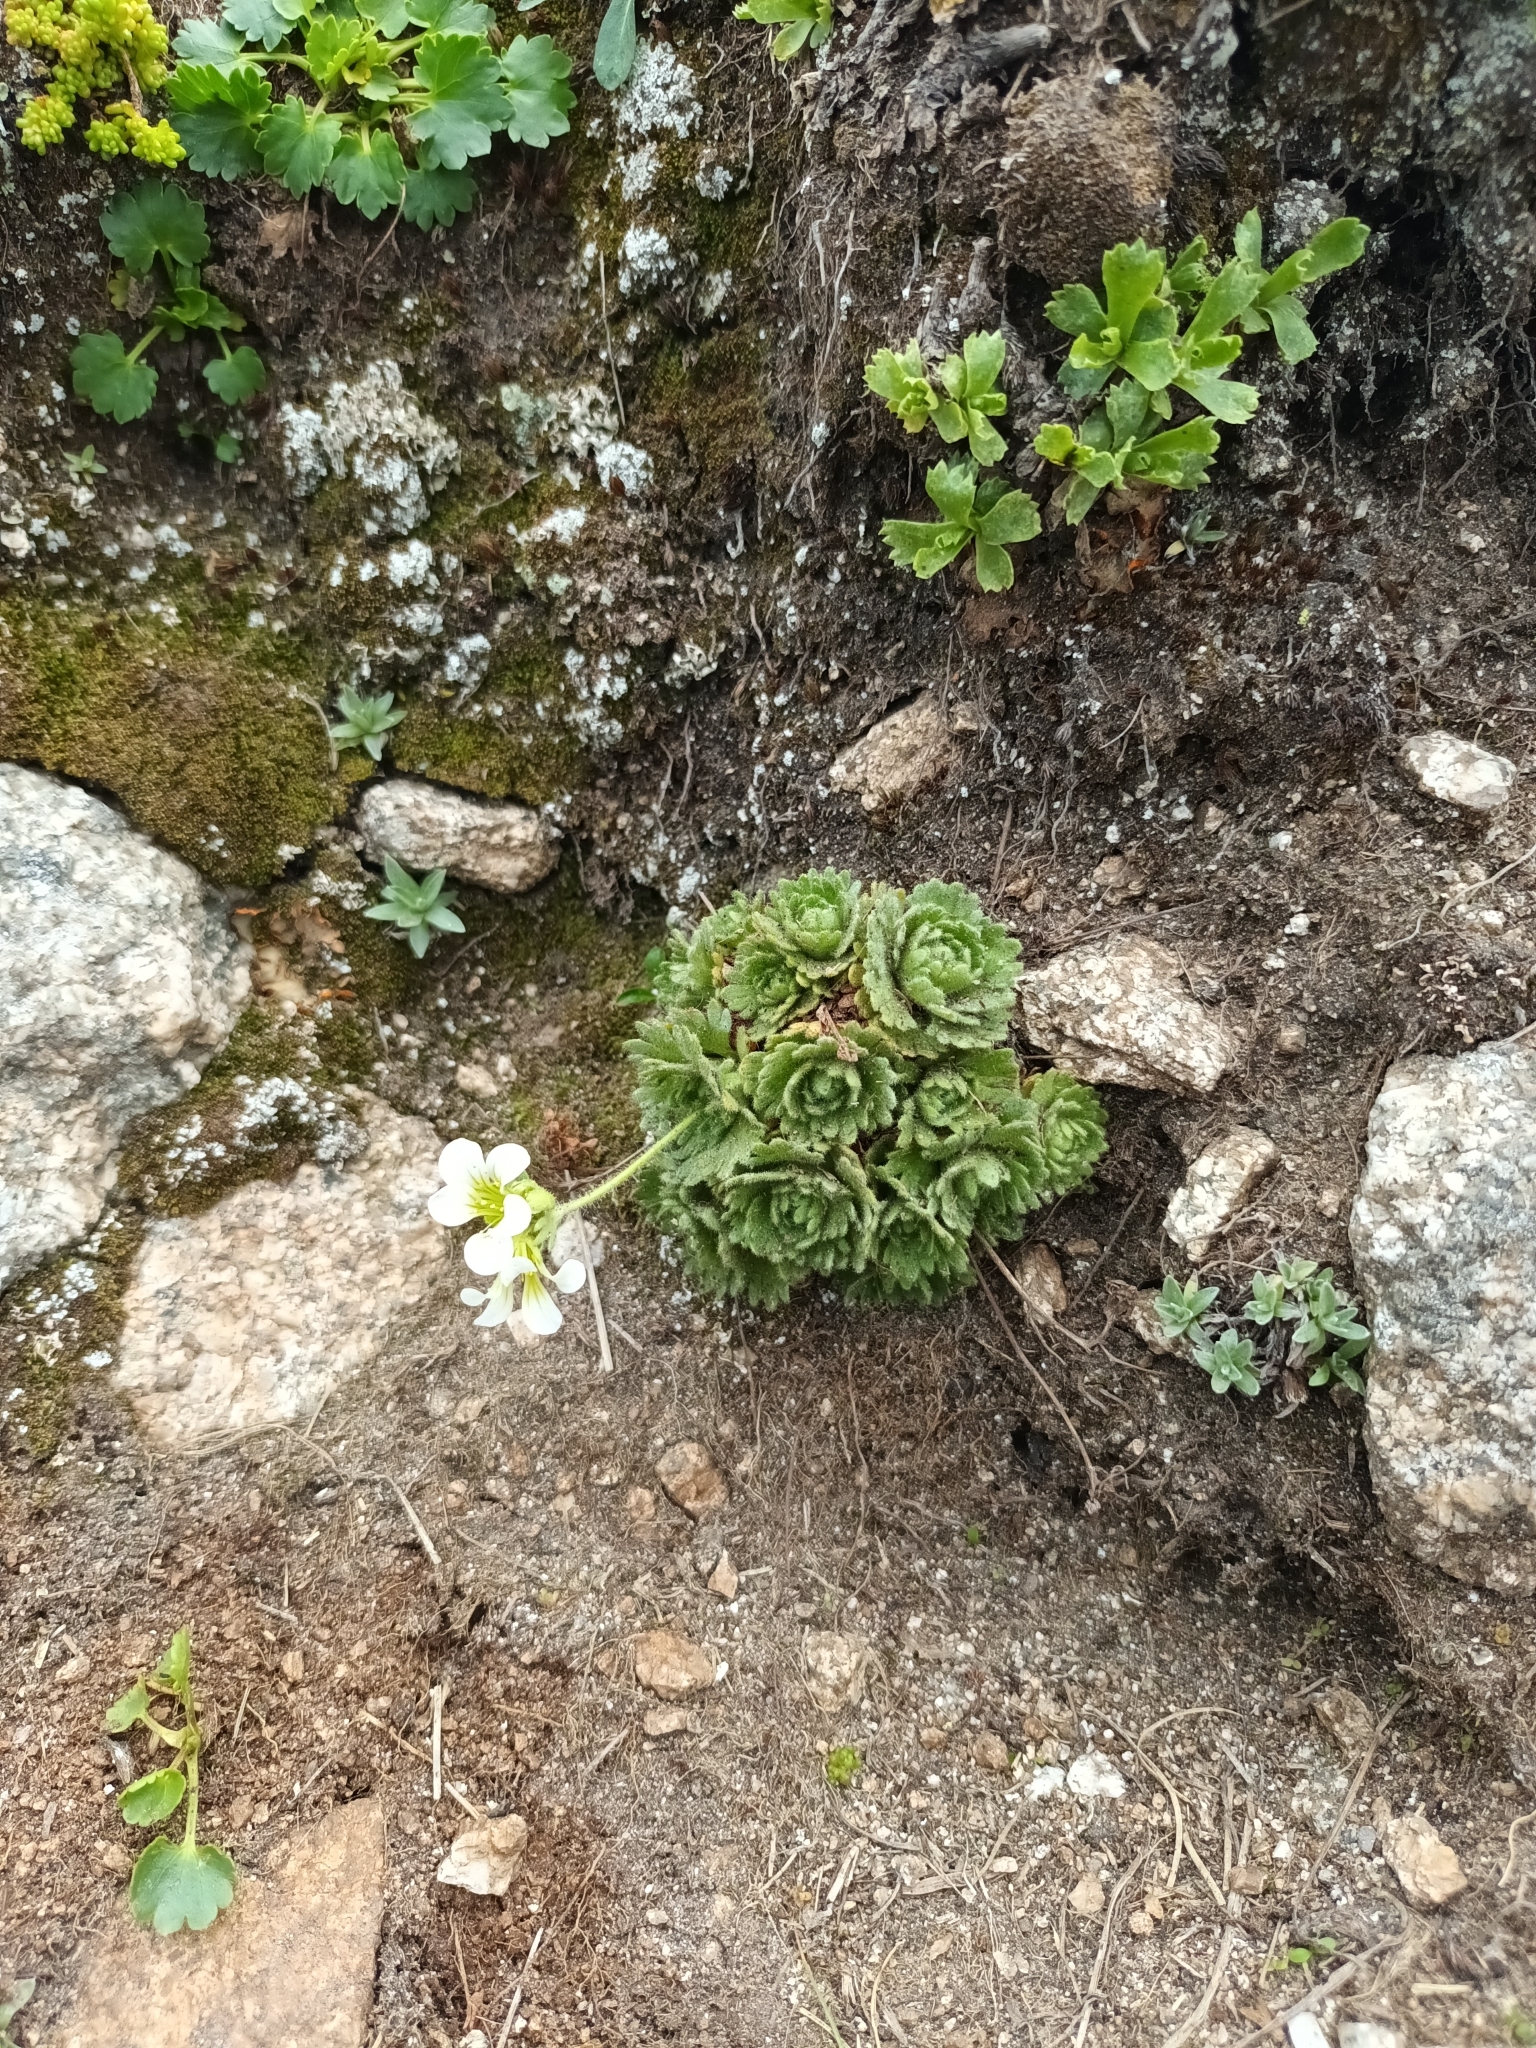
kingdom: Plantae
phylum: Tracheophyta
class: Magnoliopsida
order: Saxifragales
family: Saxifragaceae
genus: Saxifraga
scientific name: Saxifraga pedemontana
